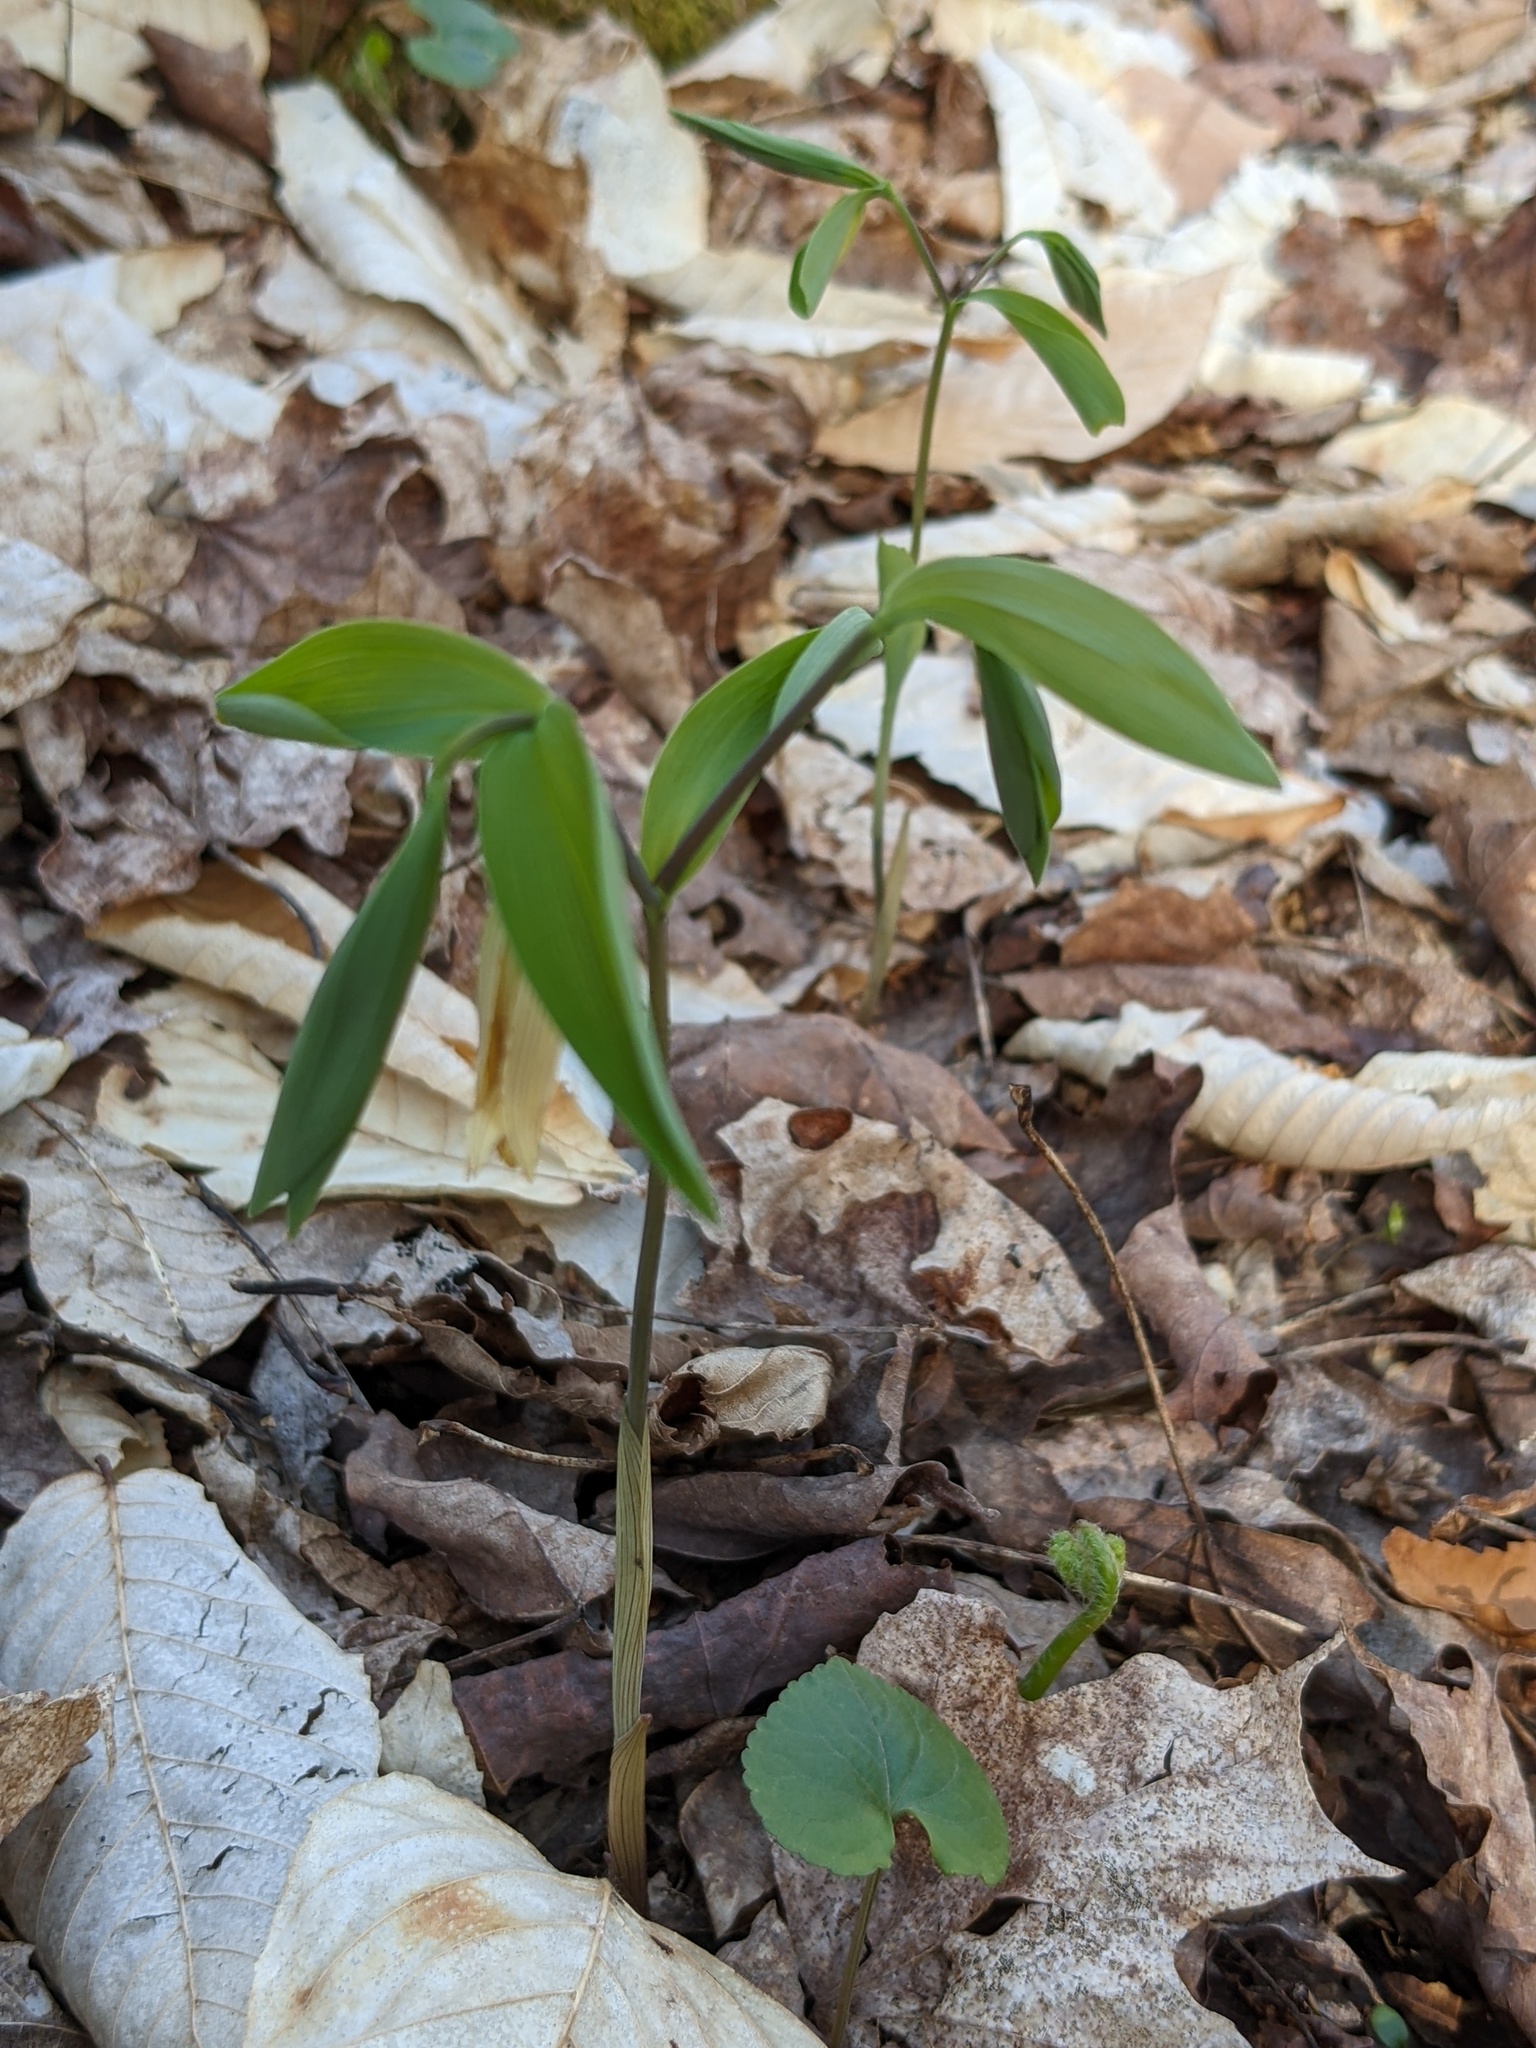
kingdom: Plantae
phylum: Tracheophyta
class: Liliopsida
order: Liliales
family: Colchicaceae
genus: Uvularia
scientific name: Uvularia sessilifolia
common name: Straw-lily
